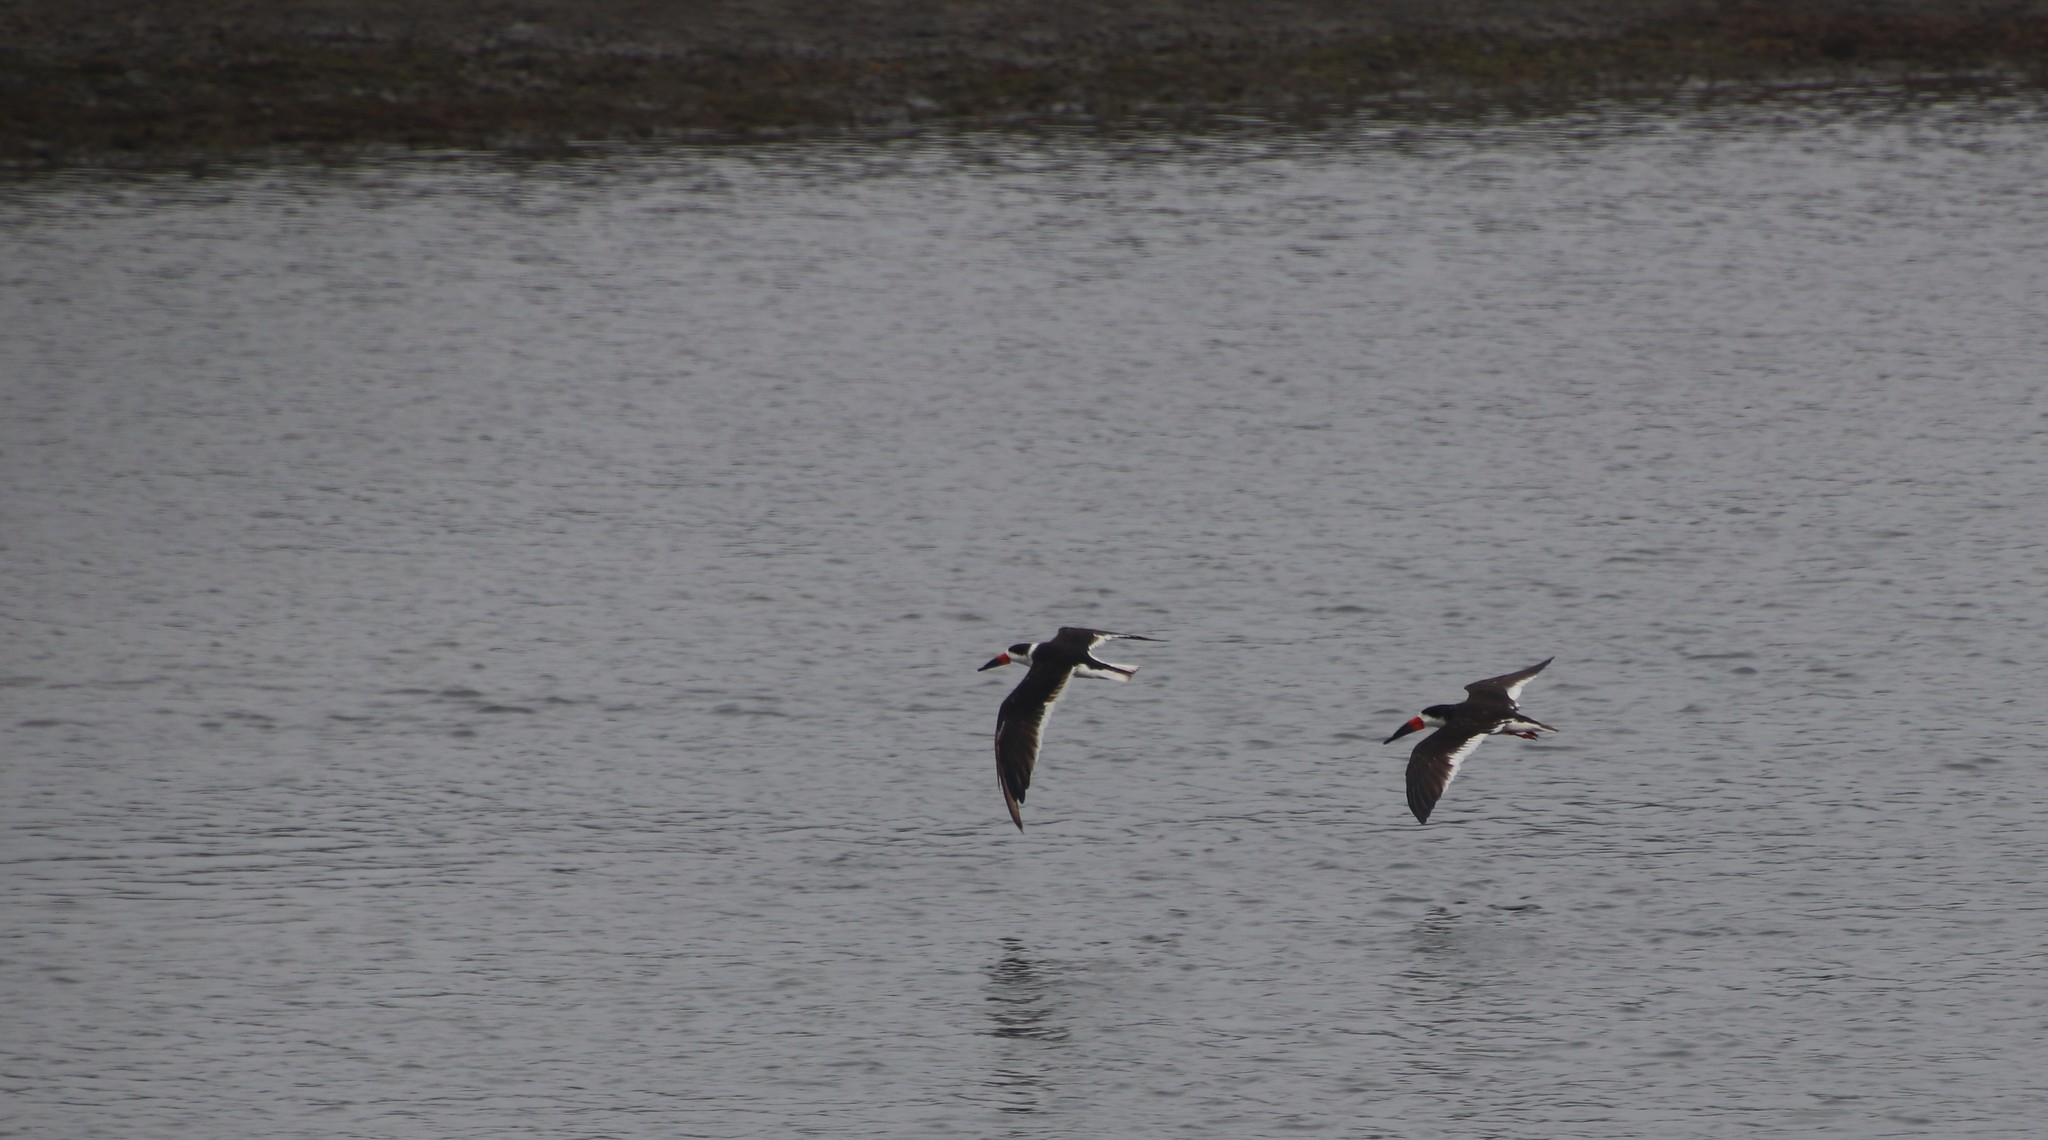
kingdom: Animalia
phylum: Chordata
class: Aves
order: Charadriiformes
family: Laridae
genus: Rynchops
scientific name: Rynchops niger
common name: Black skimmer
